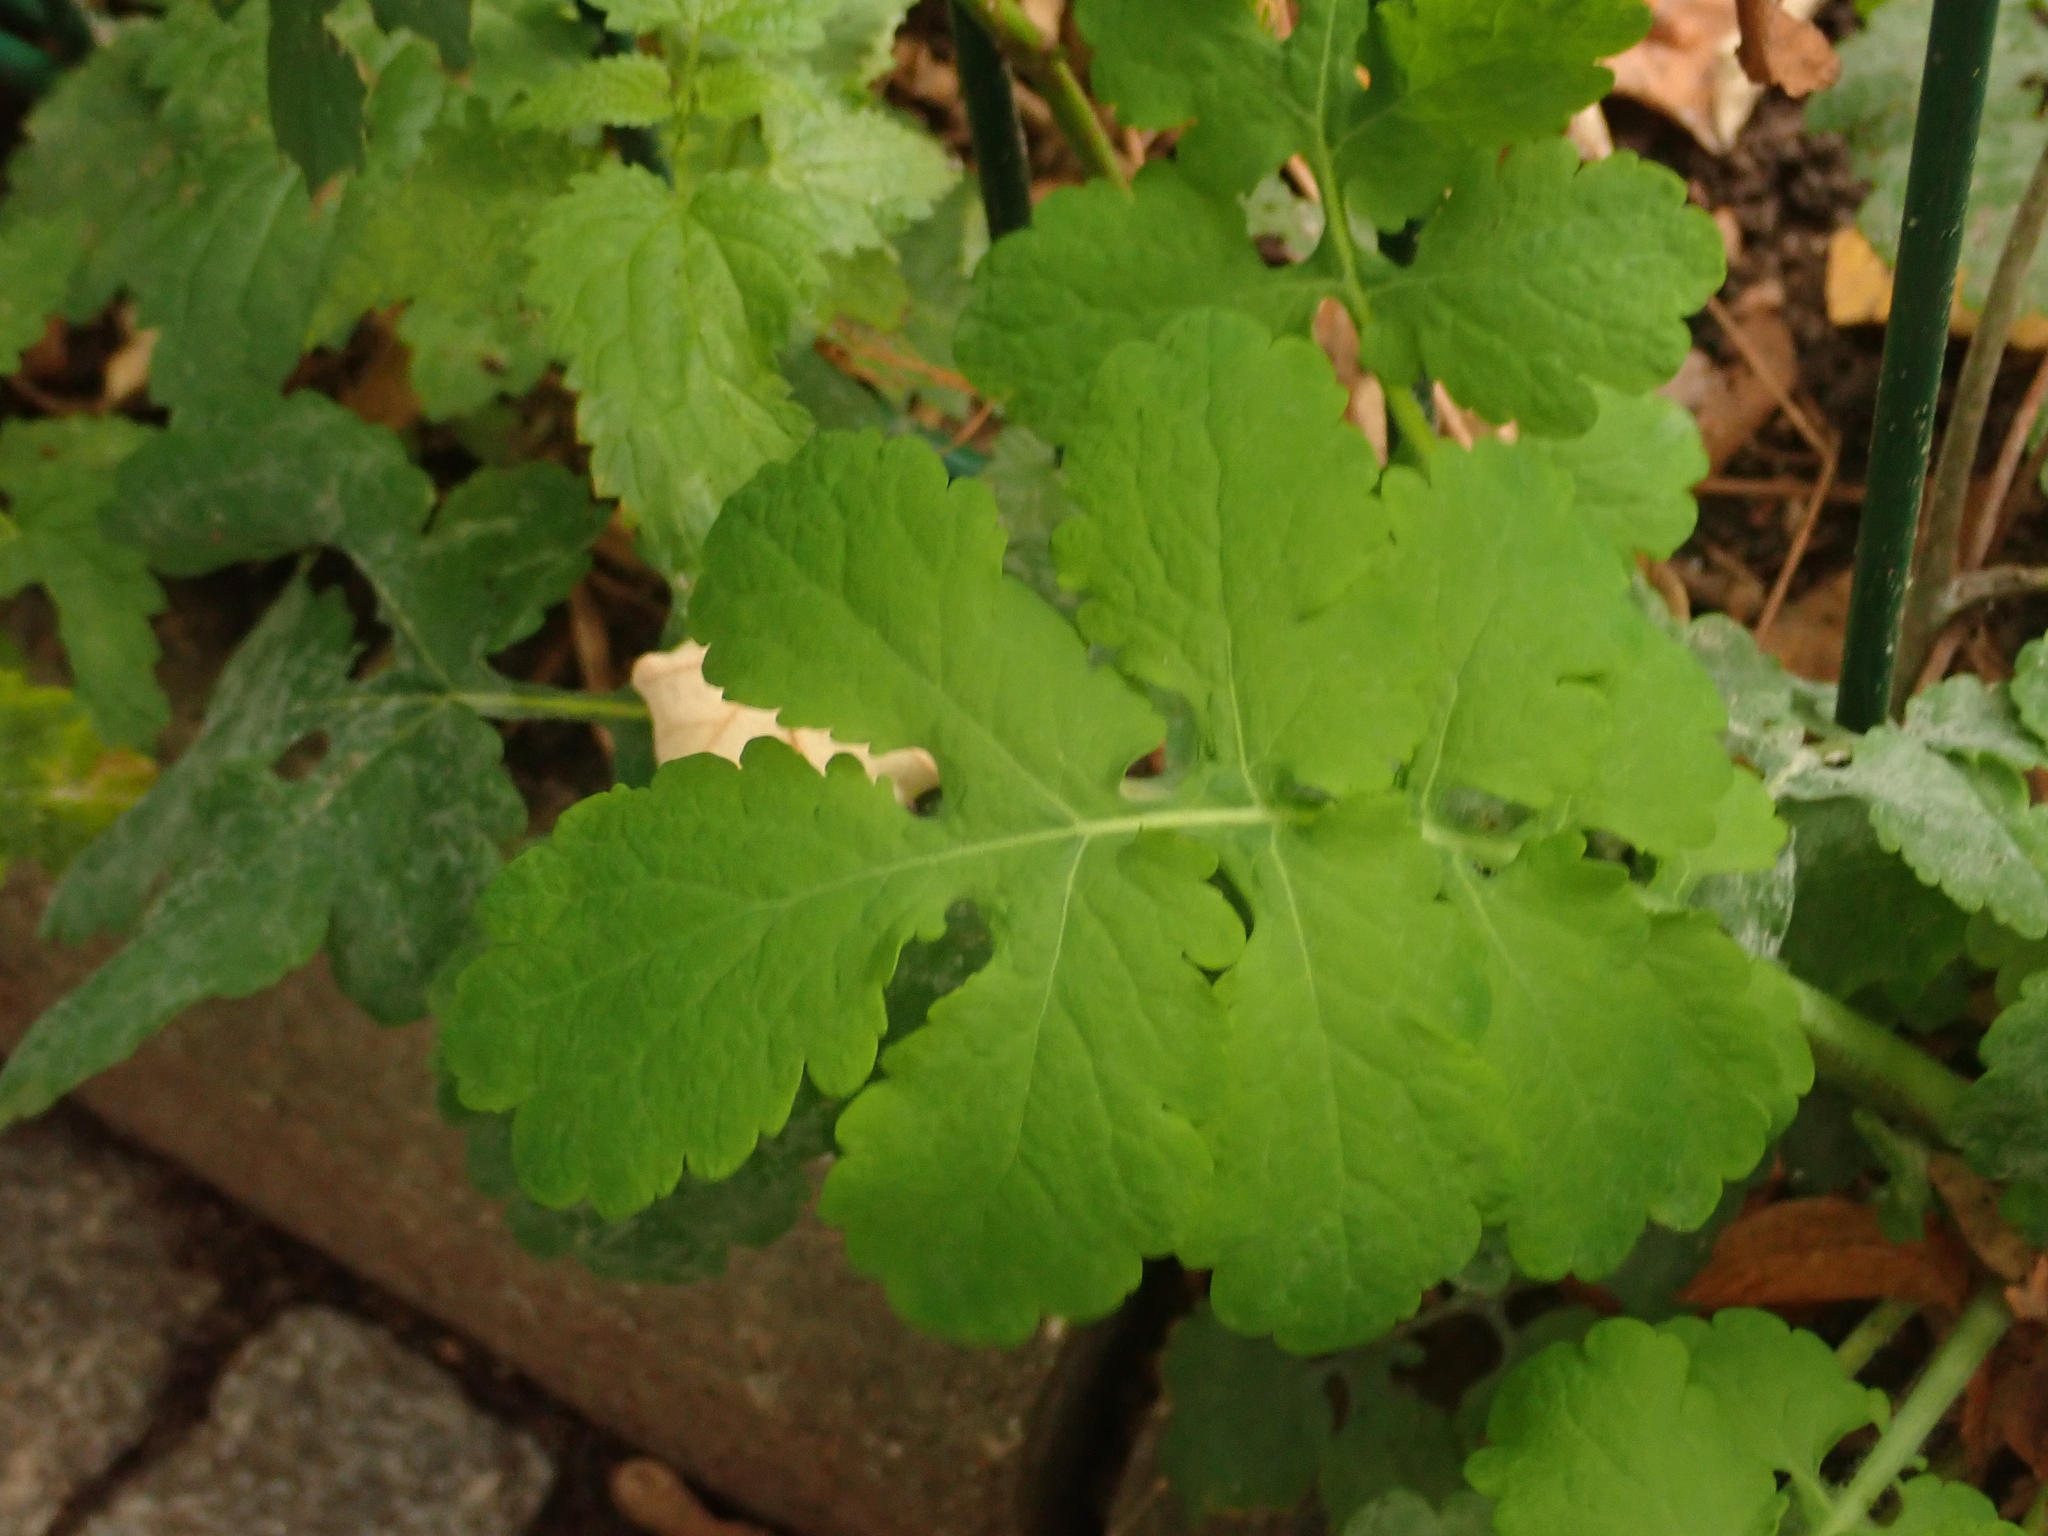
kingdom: Plantae
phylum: Tracheophyta
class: Magnoliopsida
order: Ranunculales
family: Papaveraceae
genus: Chelidonium
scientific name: Chelidonium majus
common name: Greater celandine
